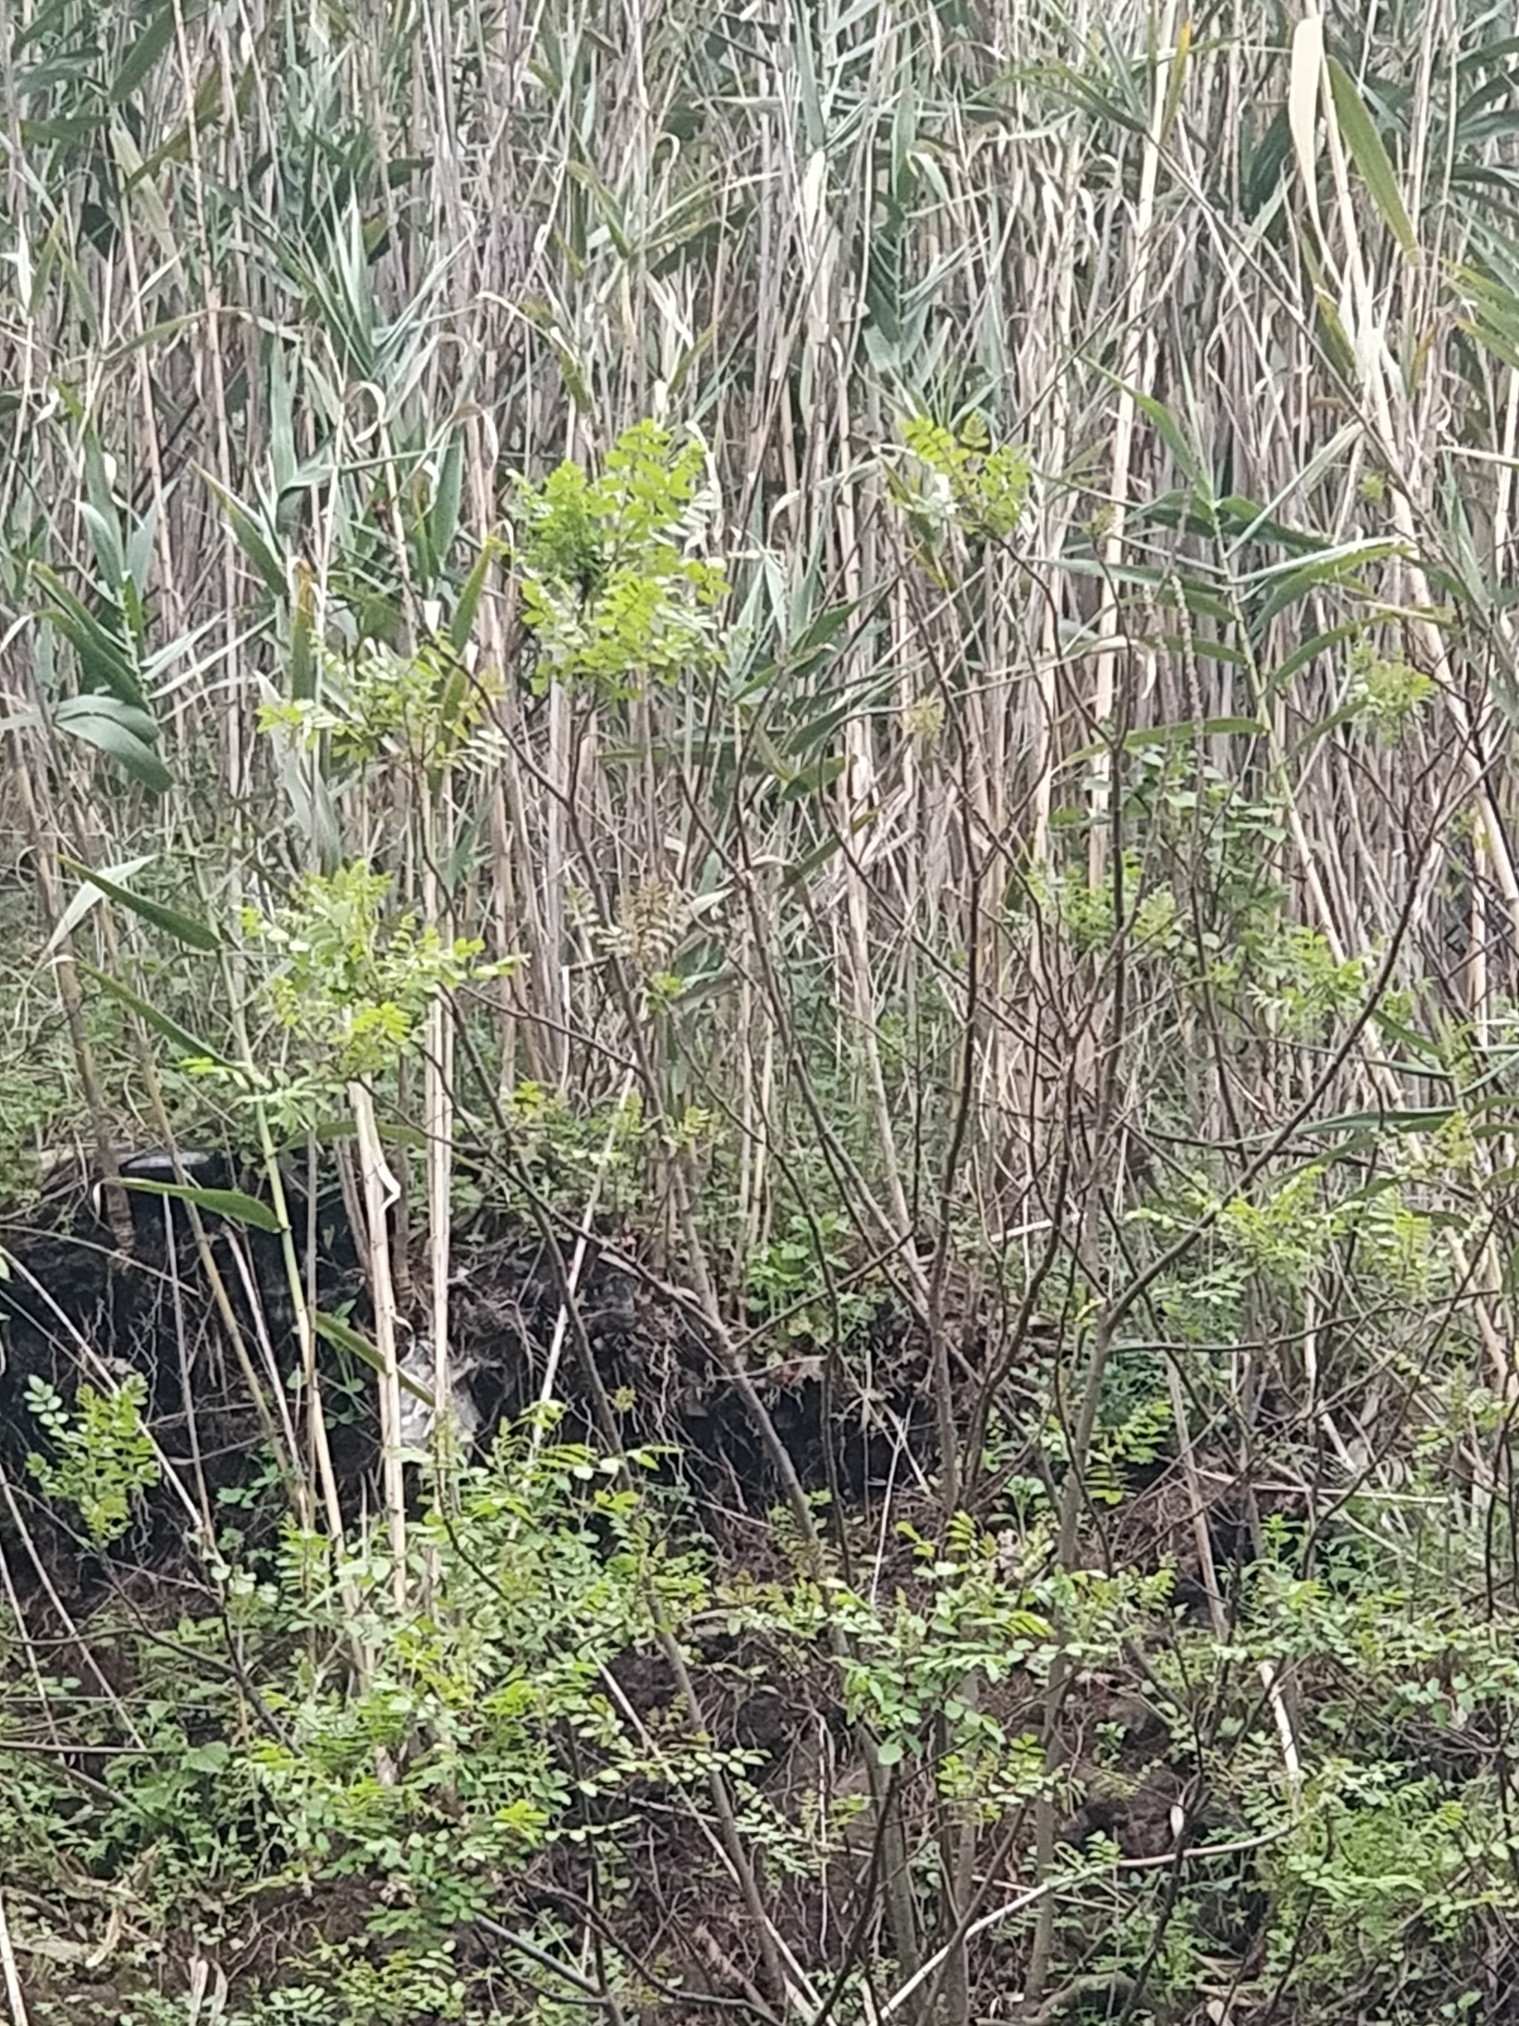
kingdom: Plantae
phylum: Tracheophyta
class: Magnoliopsida
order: Sapindales
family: Anacardiaceae
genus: Rhus
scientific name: Rhus coriaria
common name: Tanner's sumach
